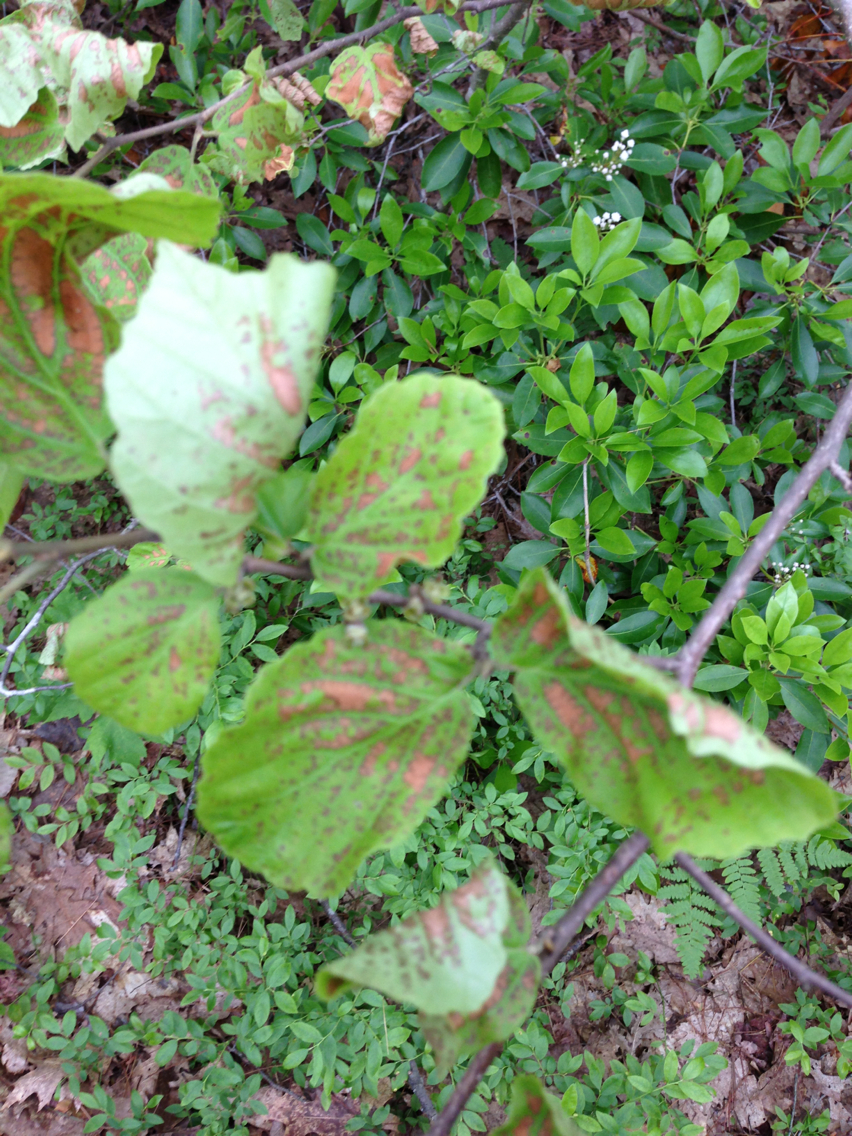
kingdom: Plantae
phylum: Tracheophyta
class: Magnoliopsida
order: Saxifragales
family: Hamamelidaceae
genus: Hamamelis
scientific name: Hamamelis virginiana
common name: Witch-hazel
